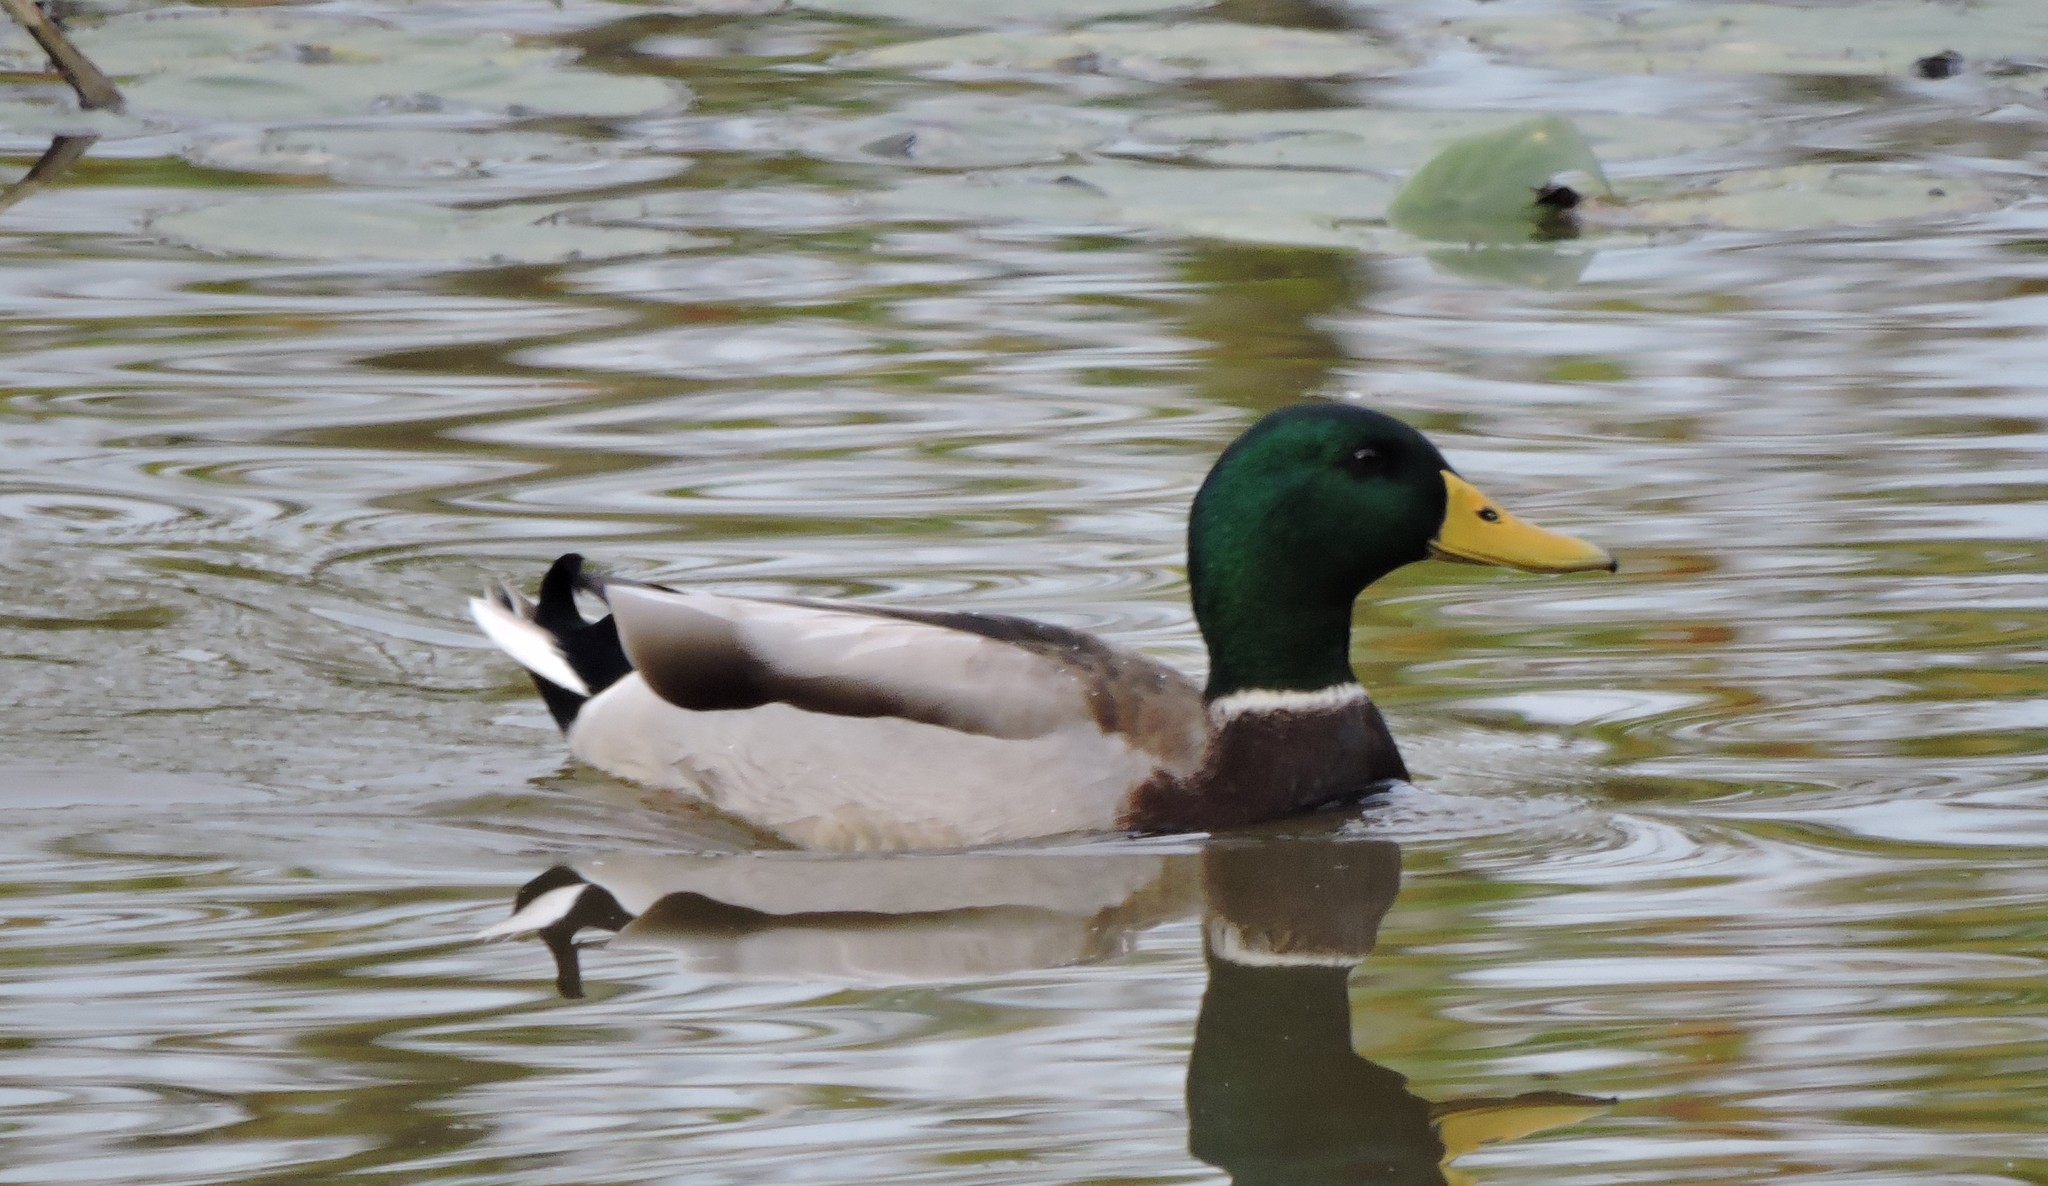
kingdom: Animalia
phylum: Chordata
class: Aves
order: Anseriformes
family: Anatidae
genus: Anas
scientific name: Anas platyrhynchos
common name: Mallard
